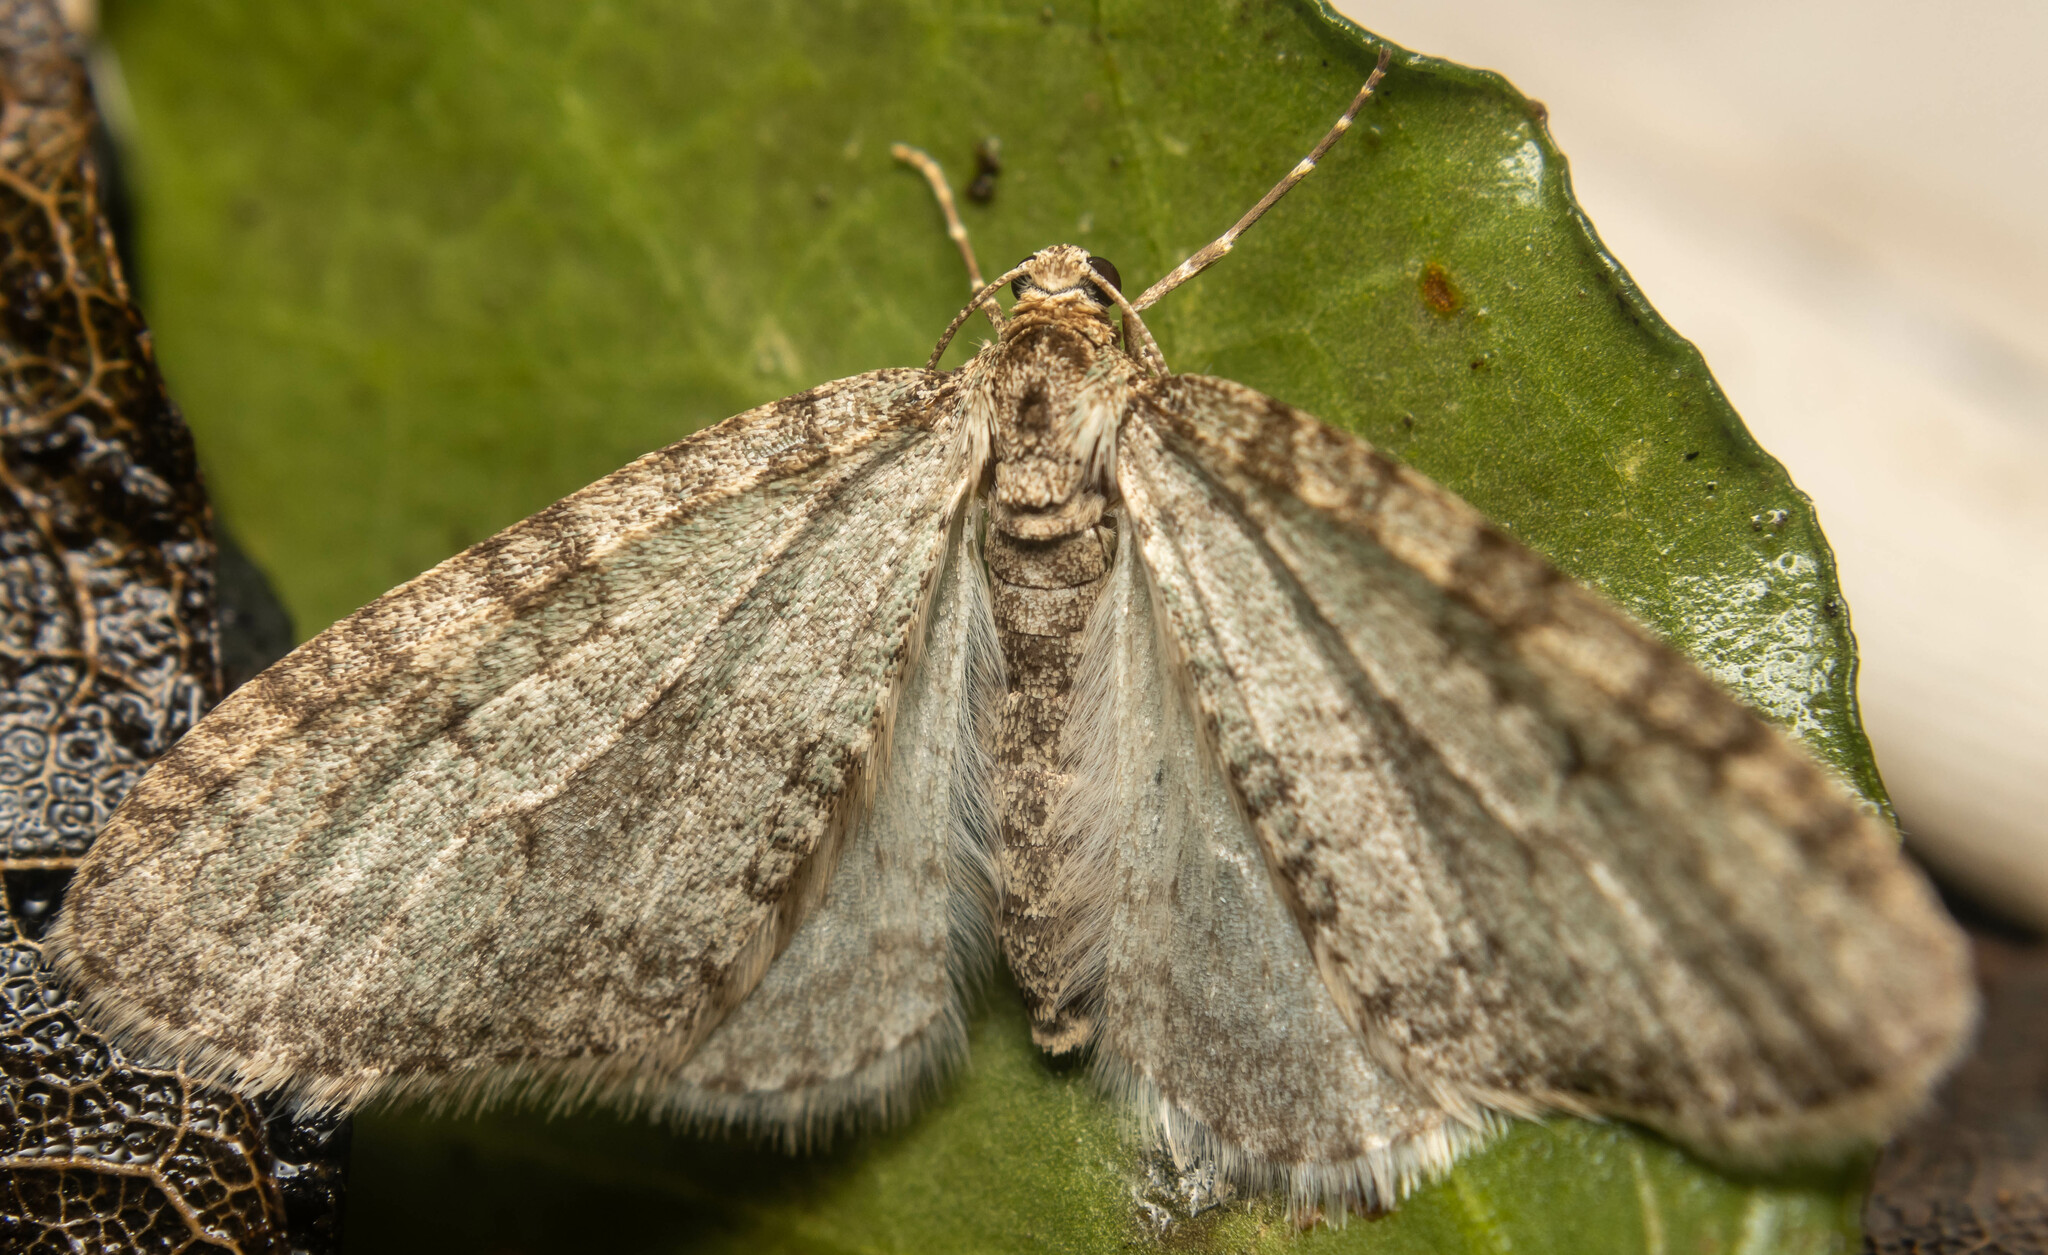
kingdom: Animalia
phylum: Arthropoda
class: Insecta
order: Lepidoptera
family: Geometridae
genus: Trichopteryx
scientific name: Trichopteryx carpinata
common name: Early tooth-striped
